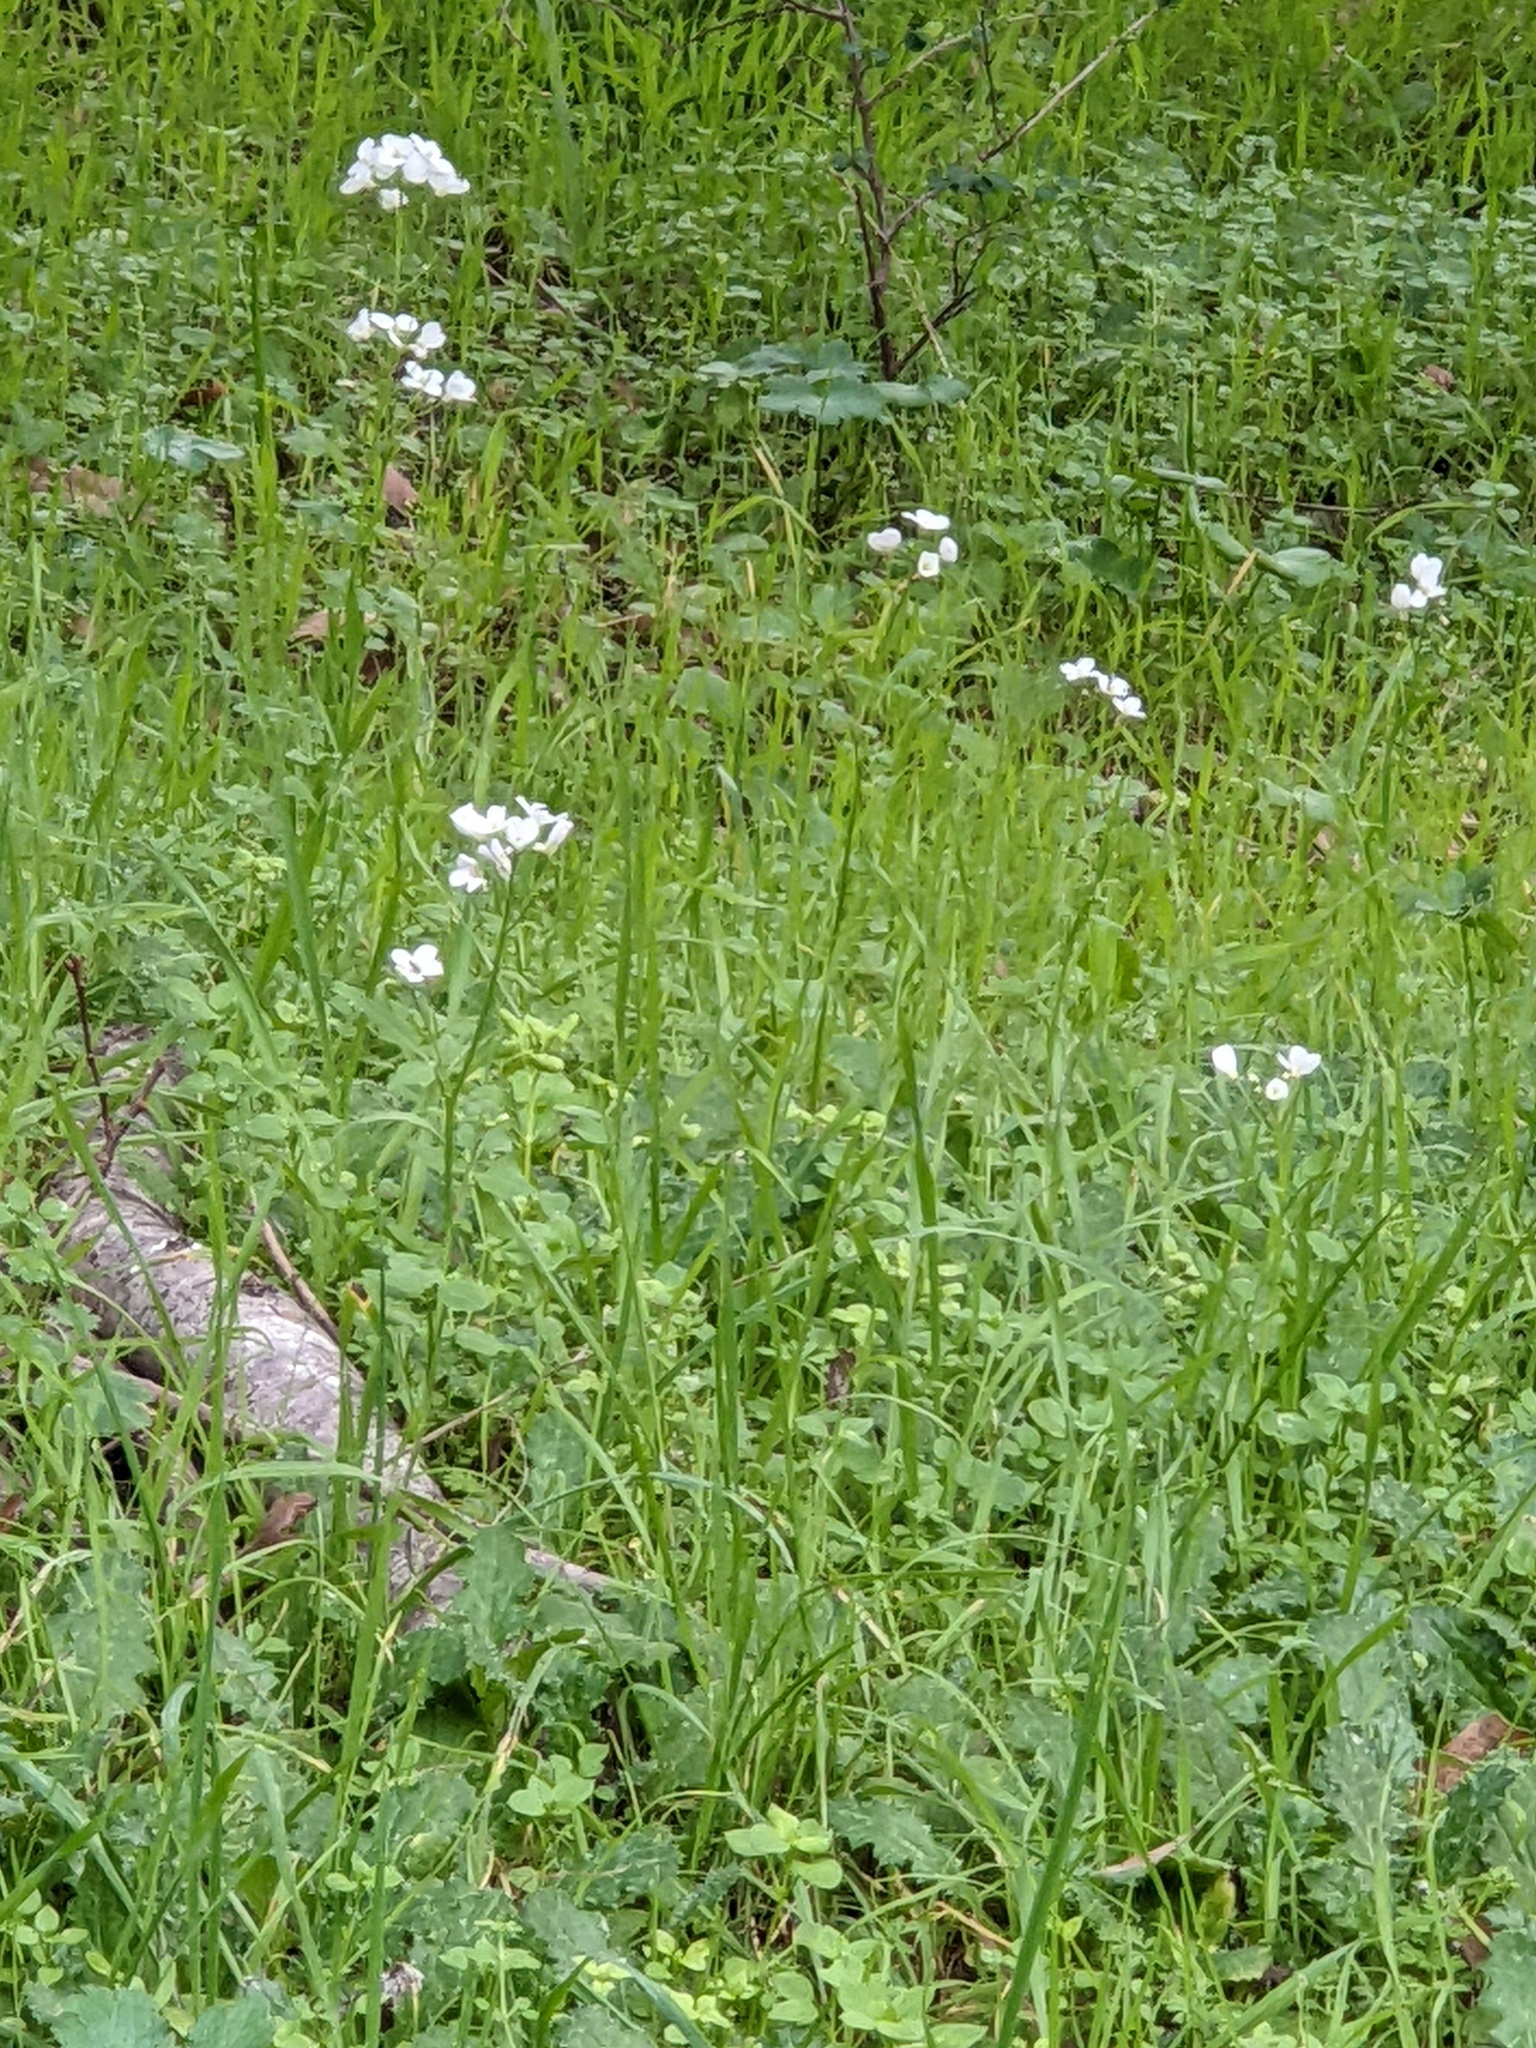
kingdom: Plantae
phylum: Tracheophyta
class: Magnoliopsida
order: Brassicales
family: Brassicaceae
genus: Cardamine
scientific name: Cardamine californica
